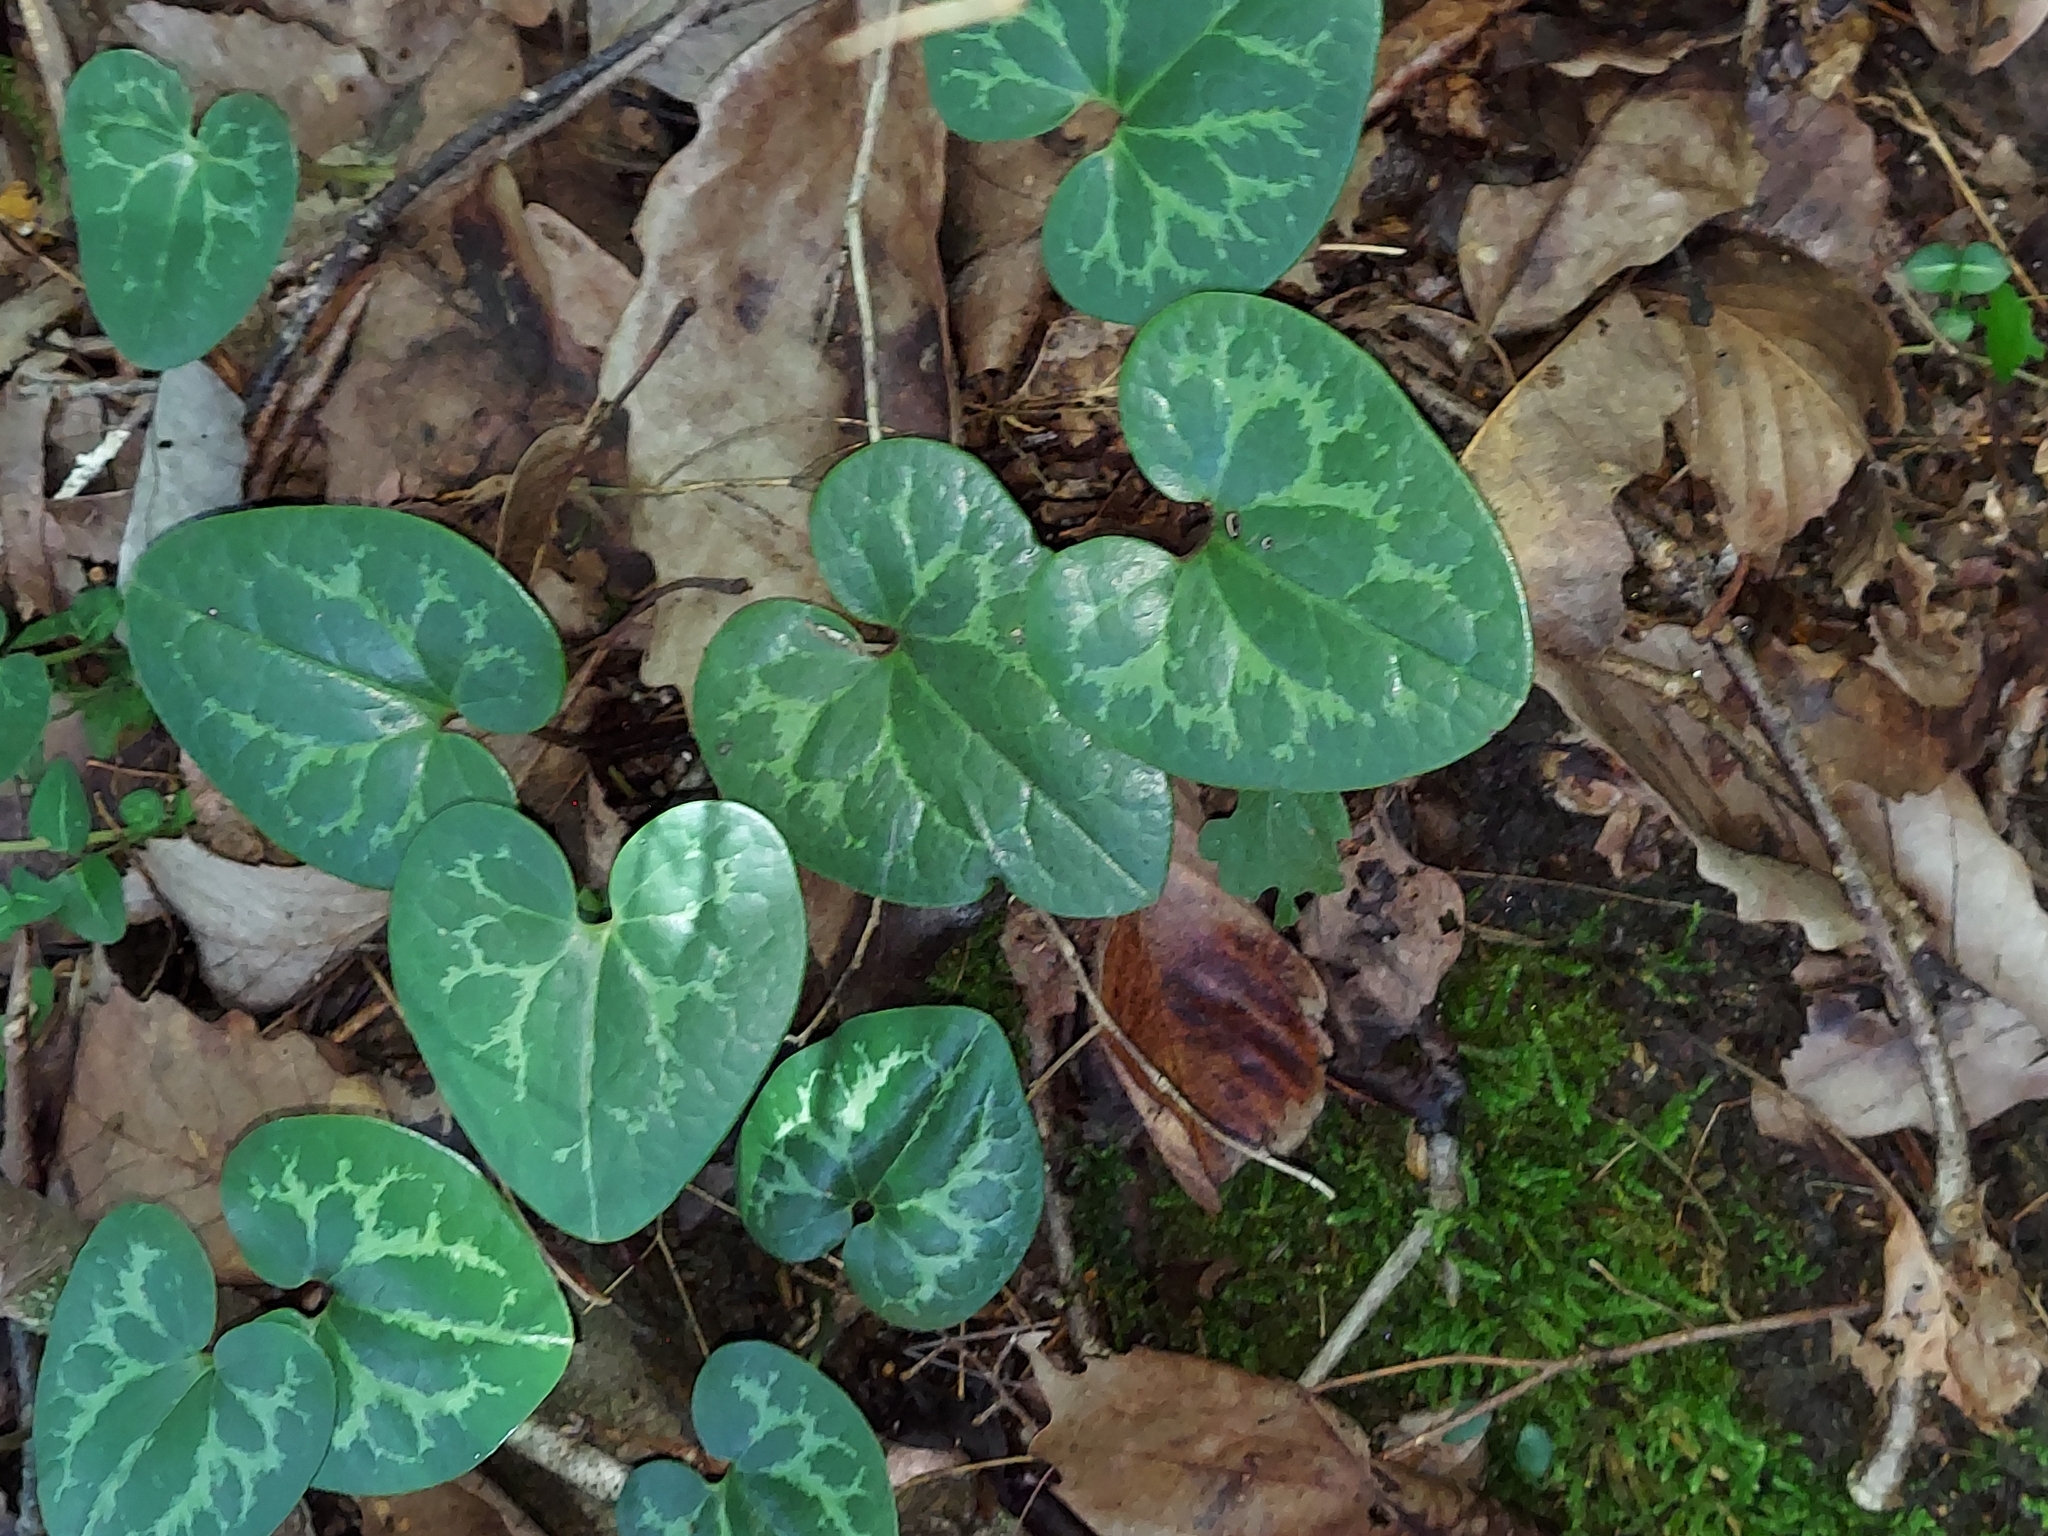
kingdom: Plantae
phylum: Tracheophyta
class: Magnoliopsida
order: Piperales
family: Aristolochiaceae
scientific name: Aristolochiaceae
